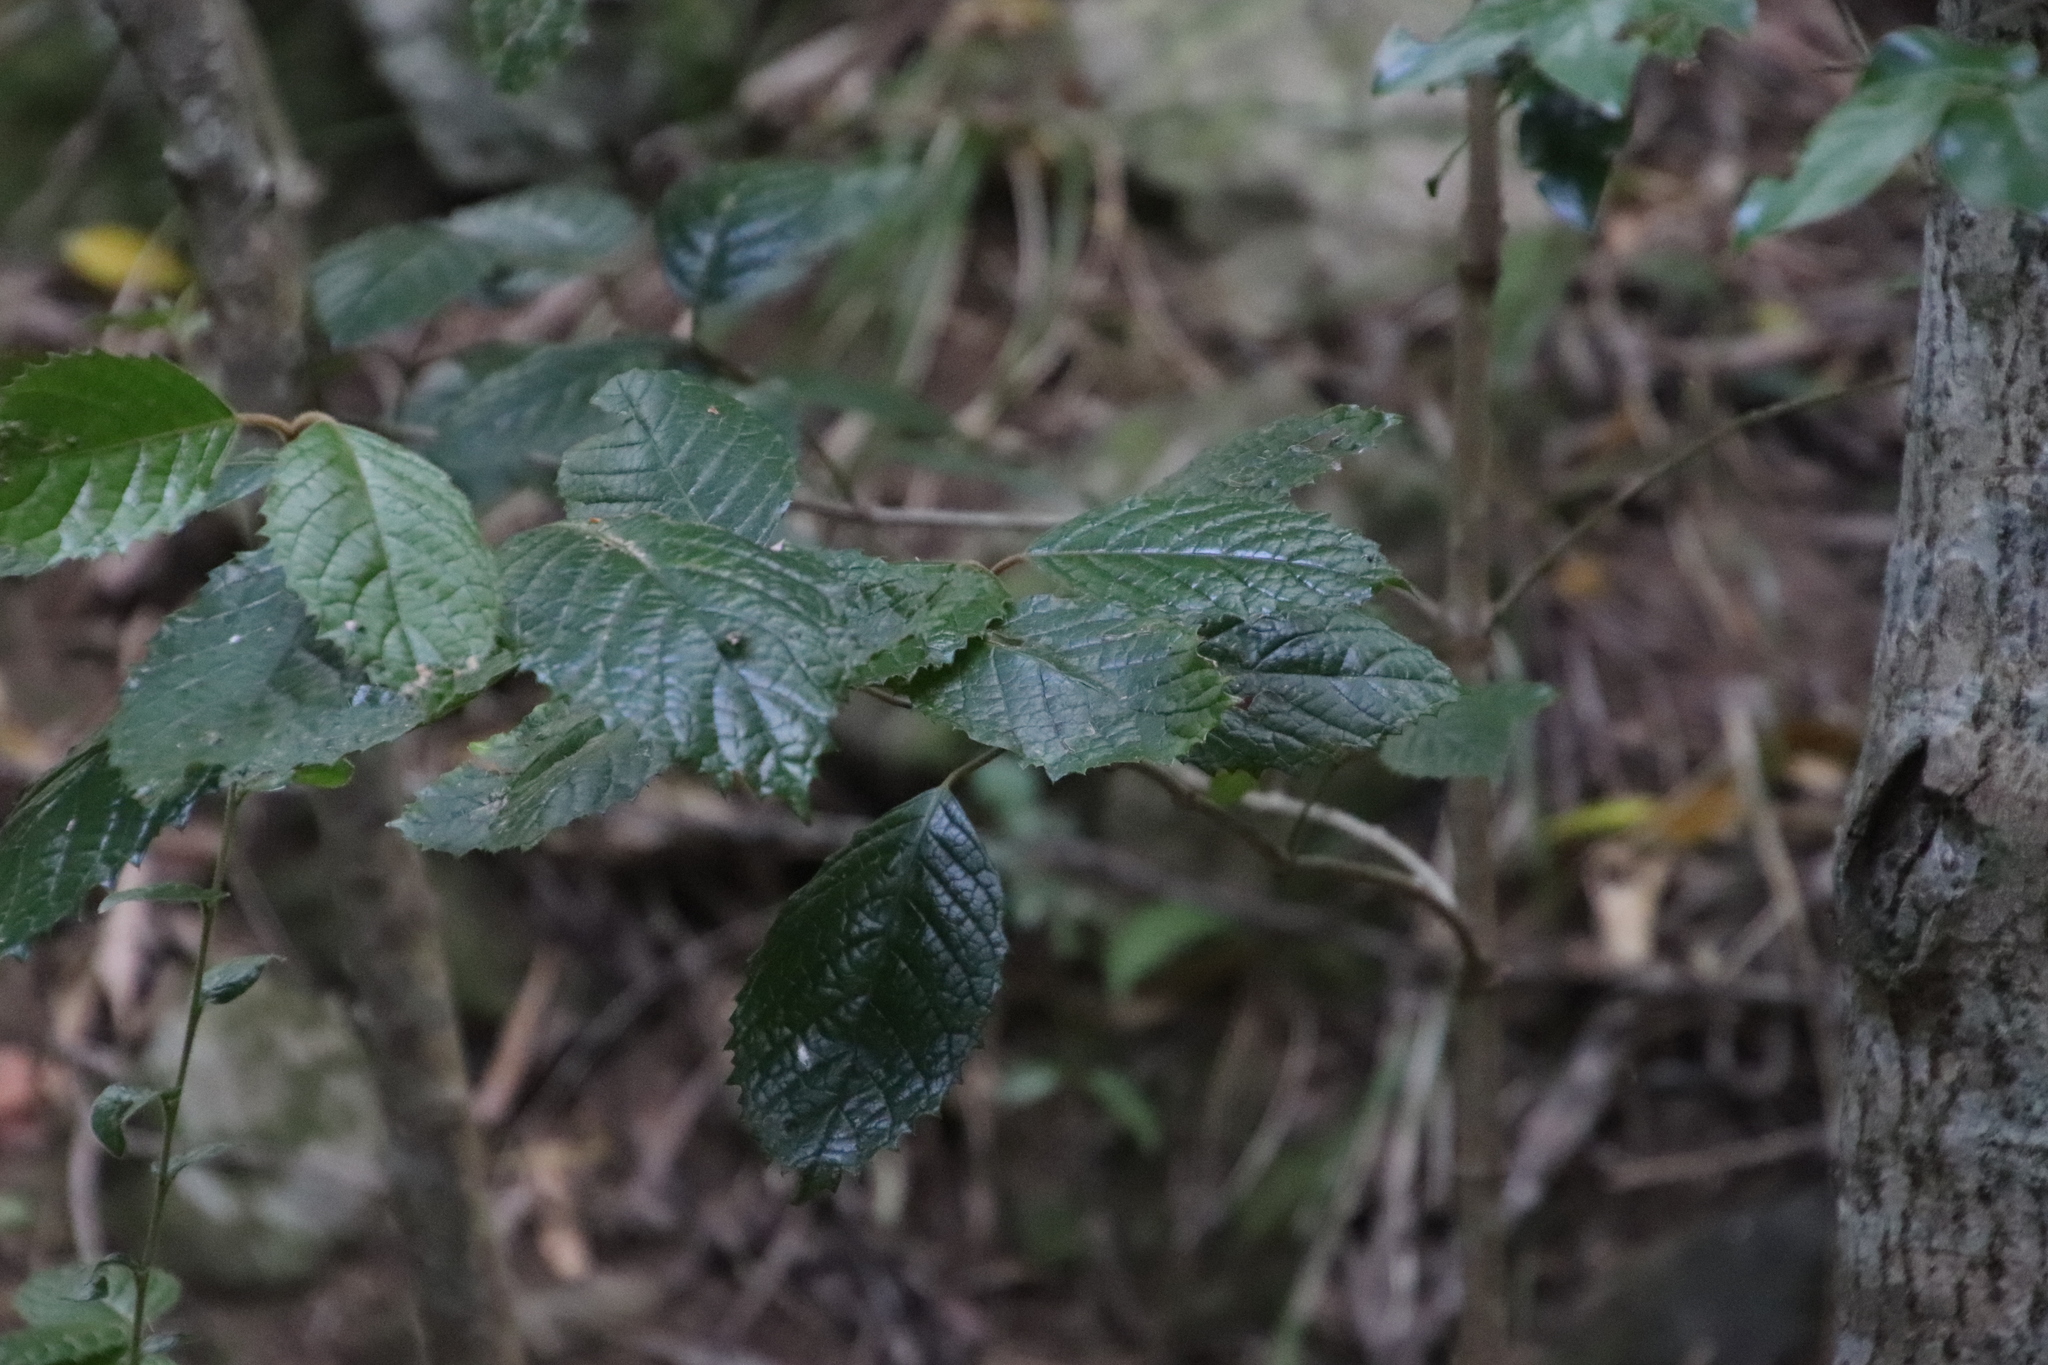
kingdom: Plantae
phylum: Tracheophyta
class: Magnoliopsida
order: Cornales
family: Curtisiaceae
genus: Curtisia
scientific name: Curtisia dentata
